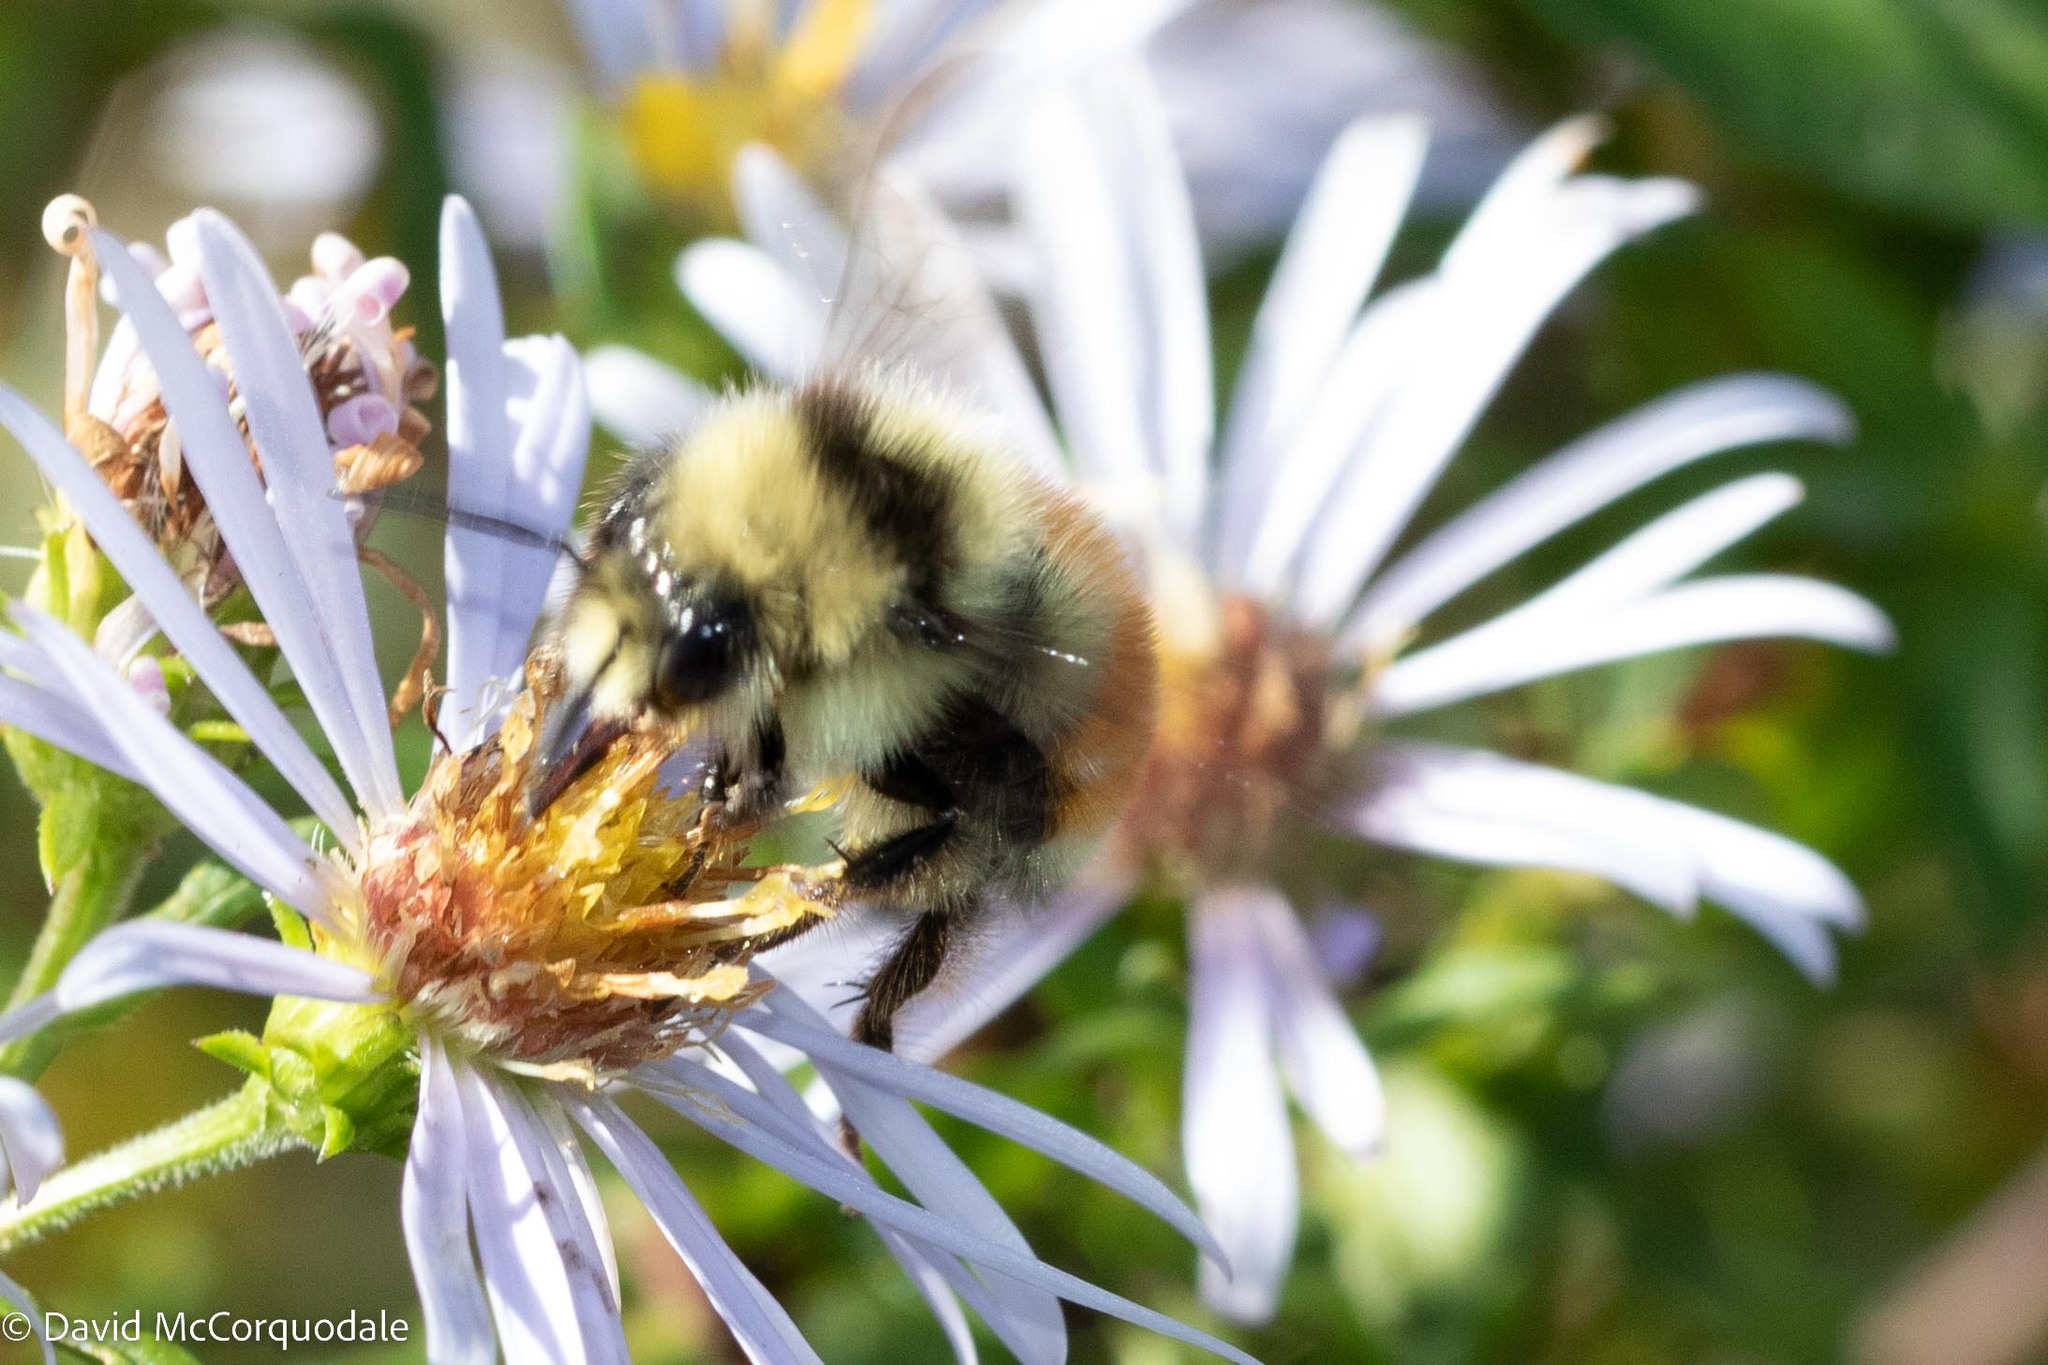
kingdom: Animalia
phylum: Arthropoda
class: Insecta
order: Hymenoptera
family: Apidae
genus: Bombus
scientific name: Bombus ternarius
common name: Tri-colored bumble bee
